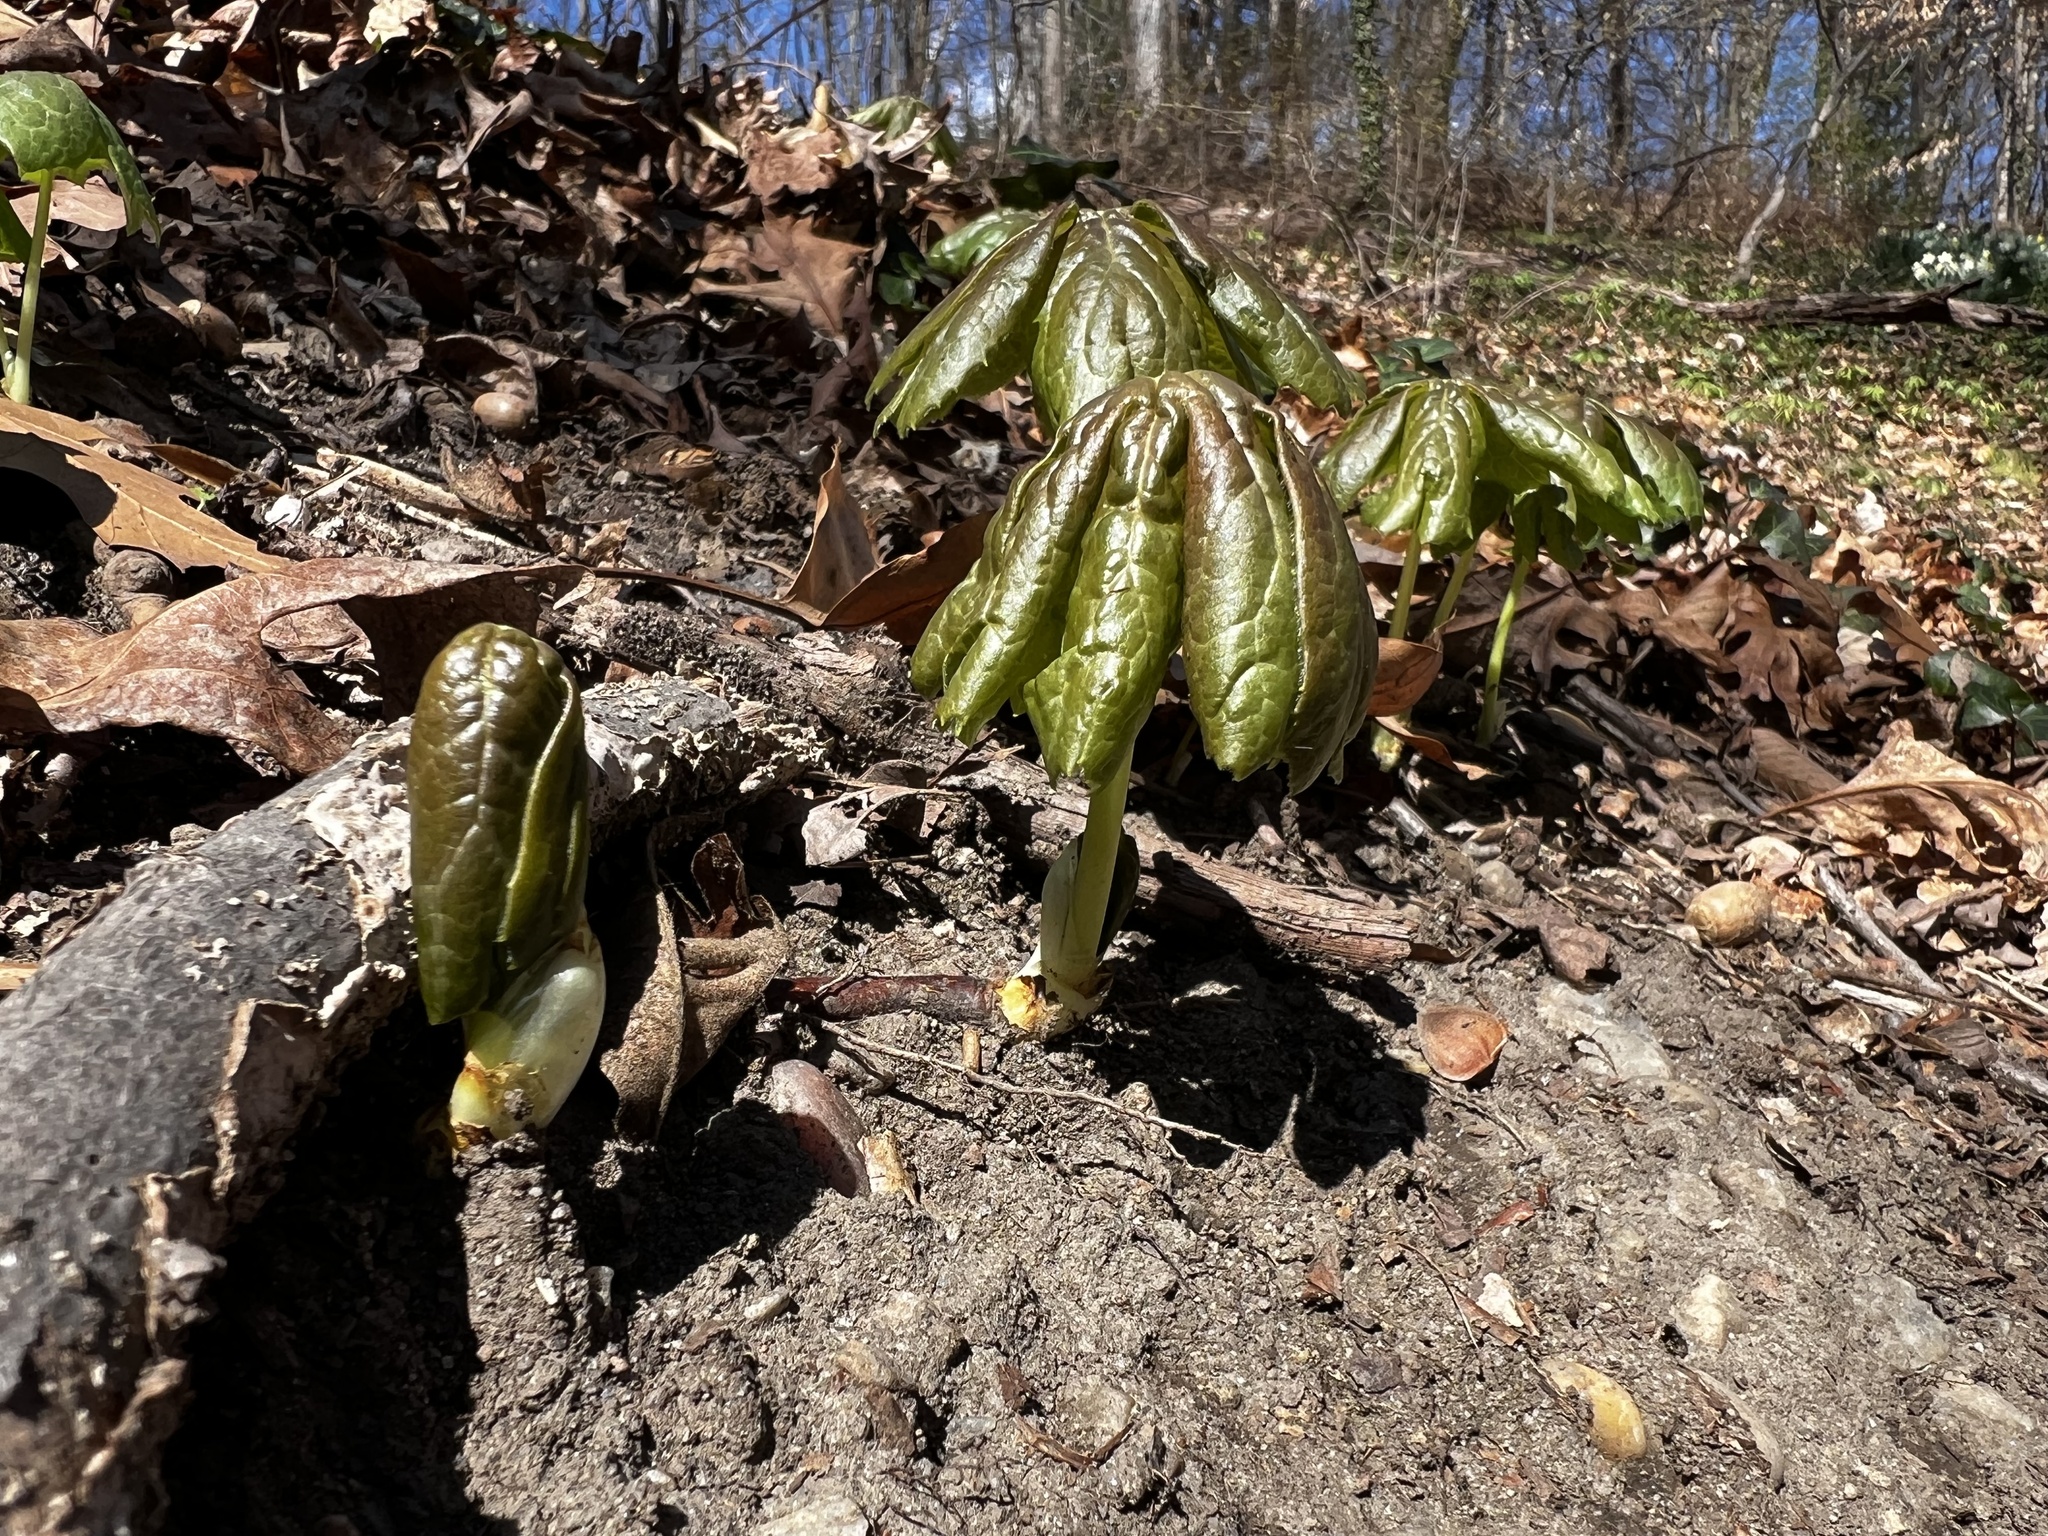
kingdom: Plantae
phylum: Tracheophyta
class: Magnoliopsida
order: Ranunculales
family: Berberidaceae
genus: Podophyllum
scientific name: Podophyllum peltatum
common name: Wild mandrake
